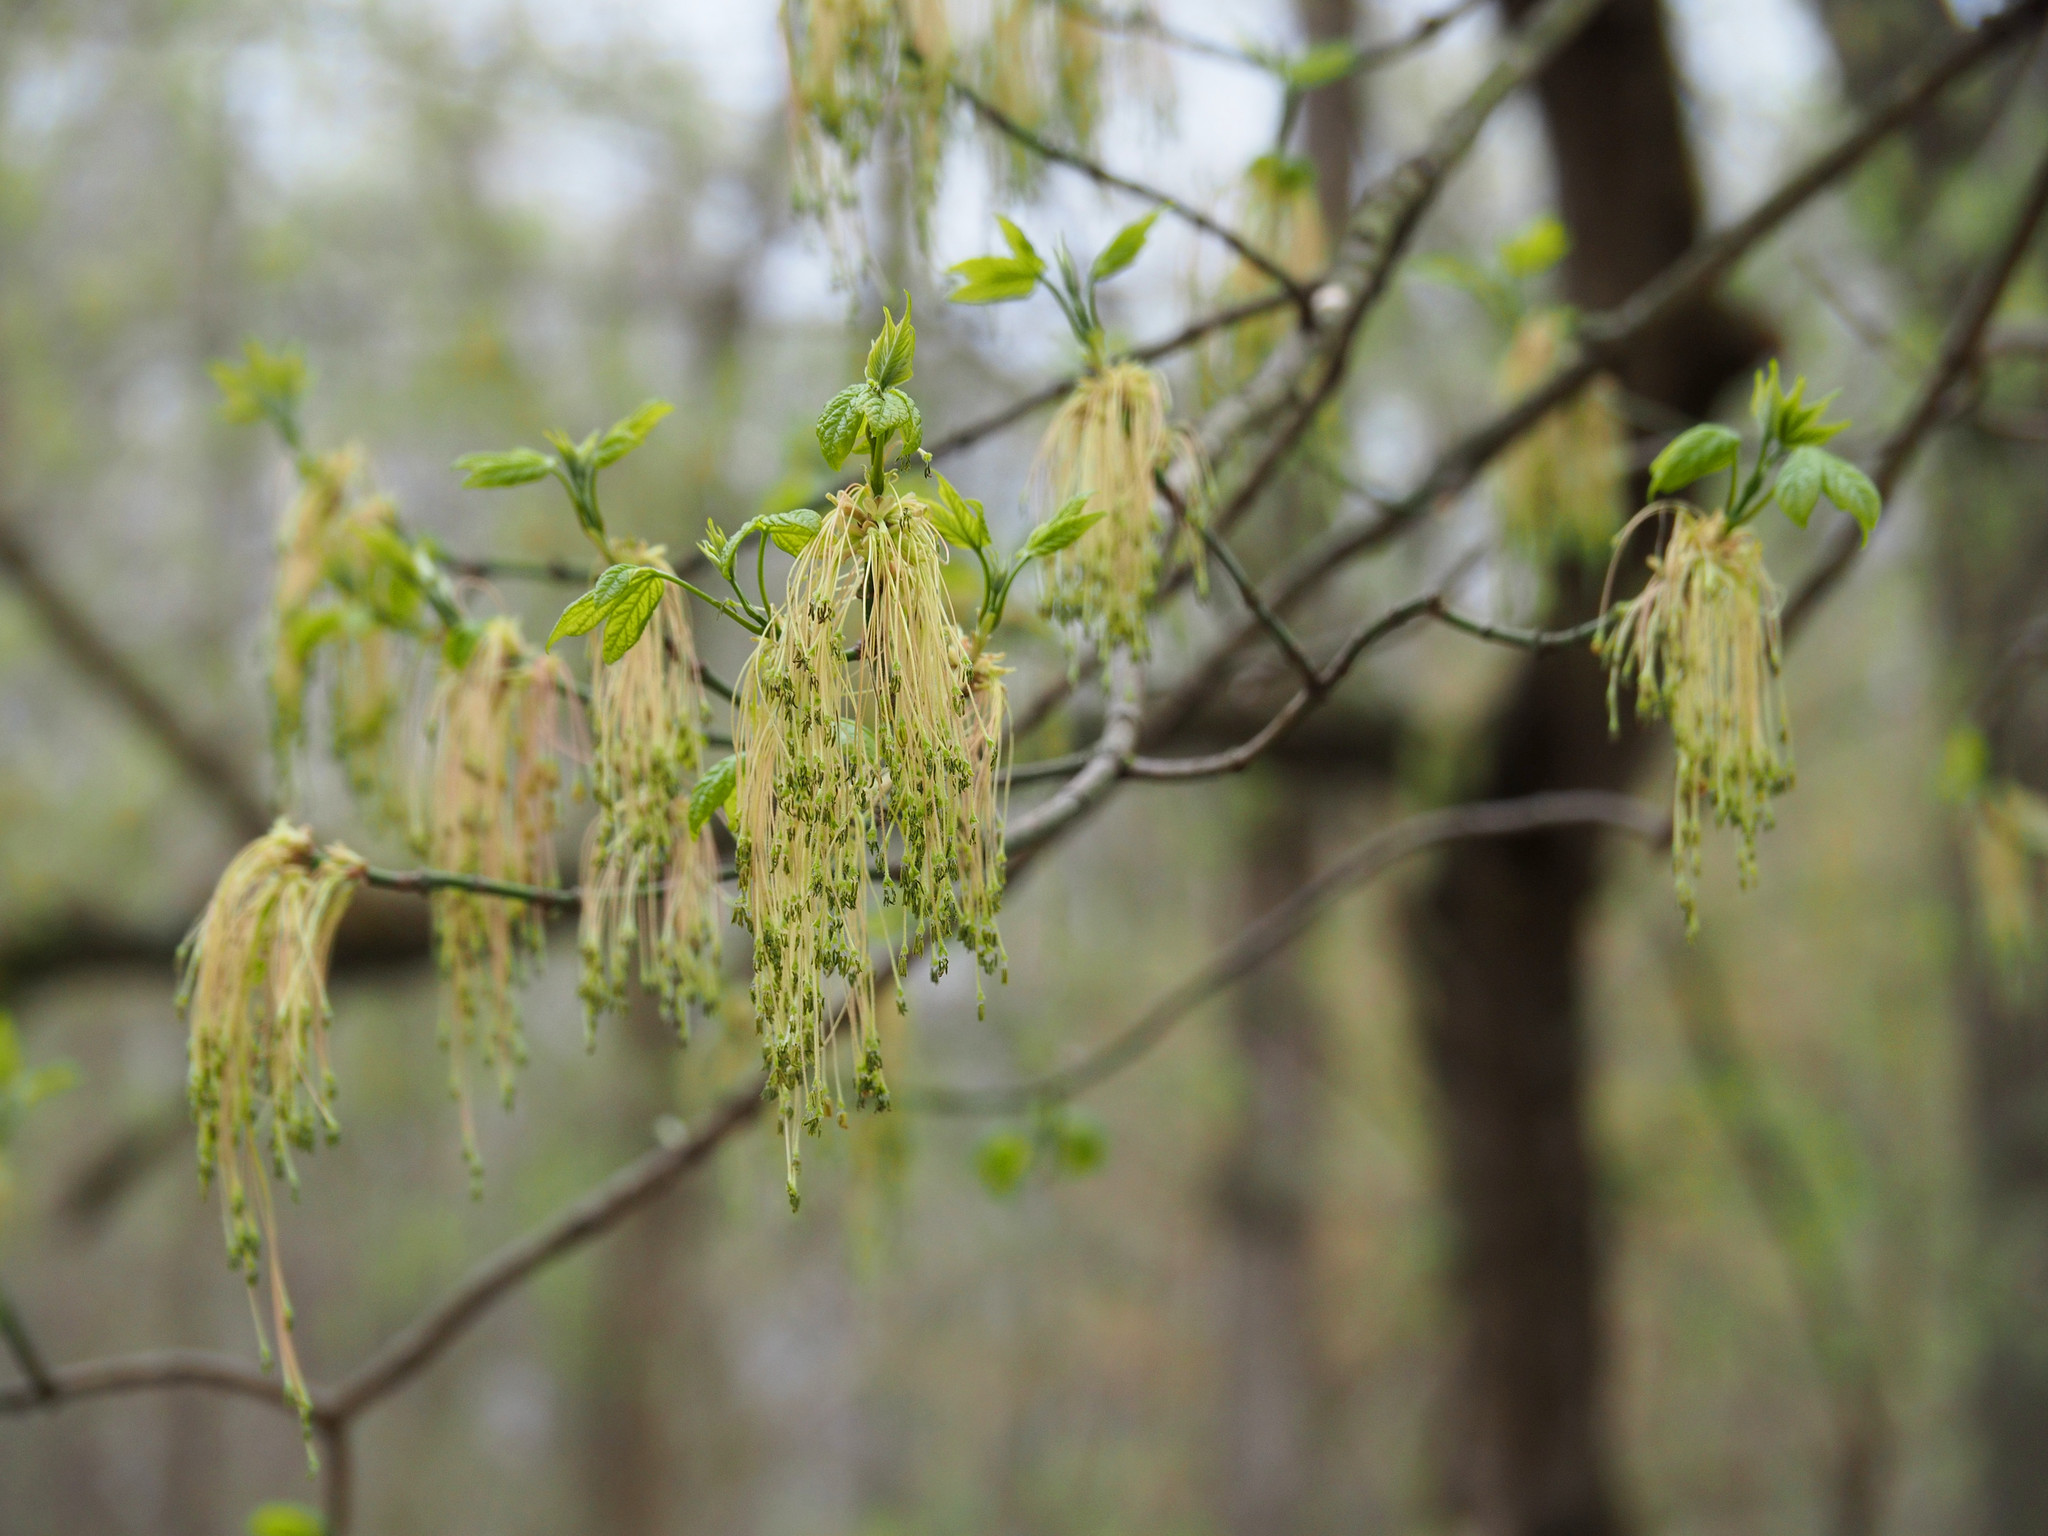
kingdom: Plantae
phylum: Tracheophyta
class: Magnoliopsida
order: Sapindales
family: Sapindaceae
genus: Acer
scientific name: Acer negundo
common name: Ashleaf maple
